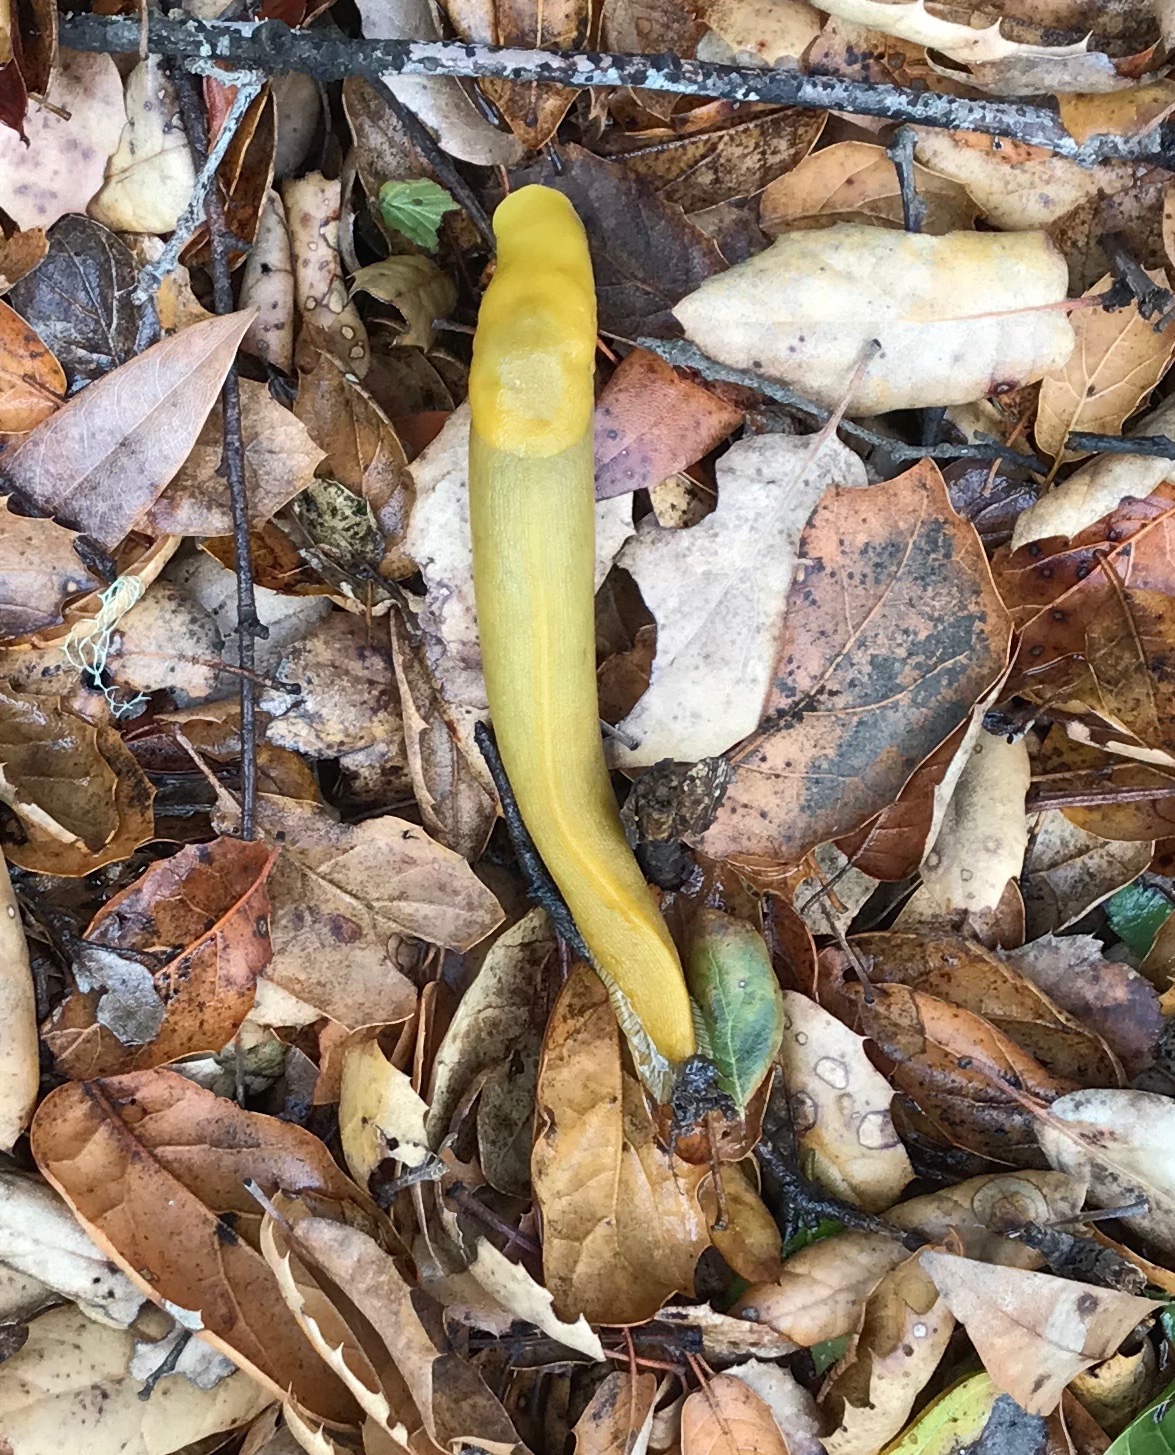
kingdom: Animalia
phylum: Mollusca
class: Gastropoda
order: Stylommatophora
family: Ariolimacidae
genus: Ariolimax
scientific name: Ariolimax californicus
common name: California banana slug
